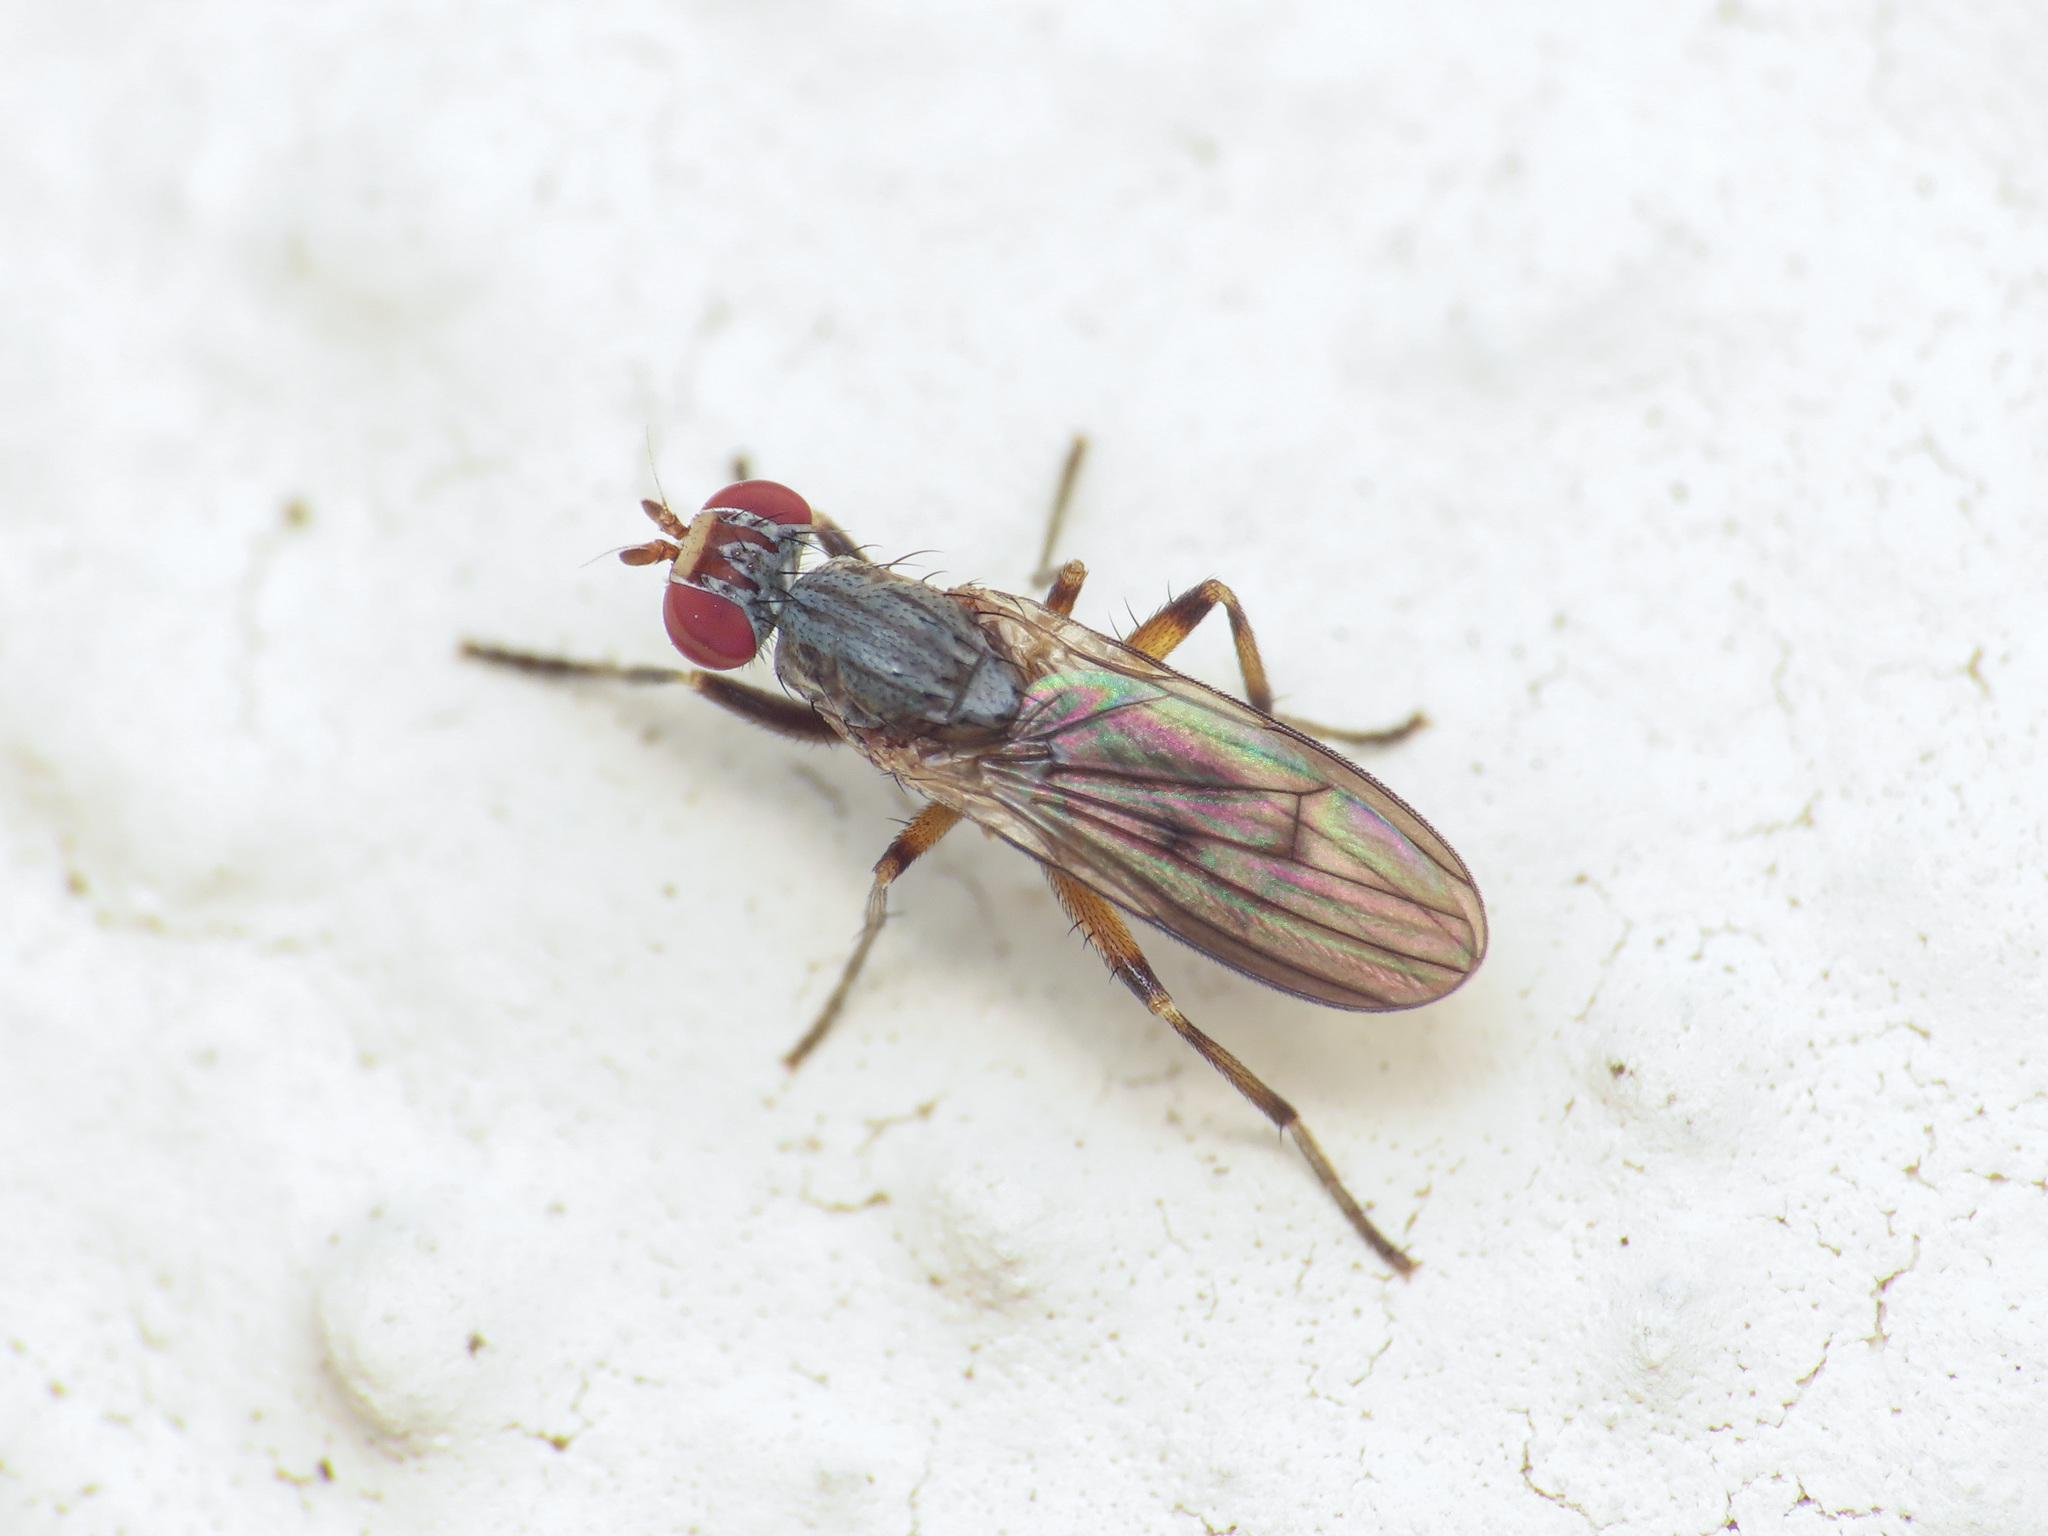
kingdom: Animalia
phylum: Arthropoda
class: Insecta
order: Diptera
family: Sciomyzidae
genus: Pherbellia
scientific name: Pherbellia annulipes
